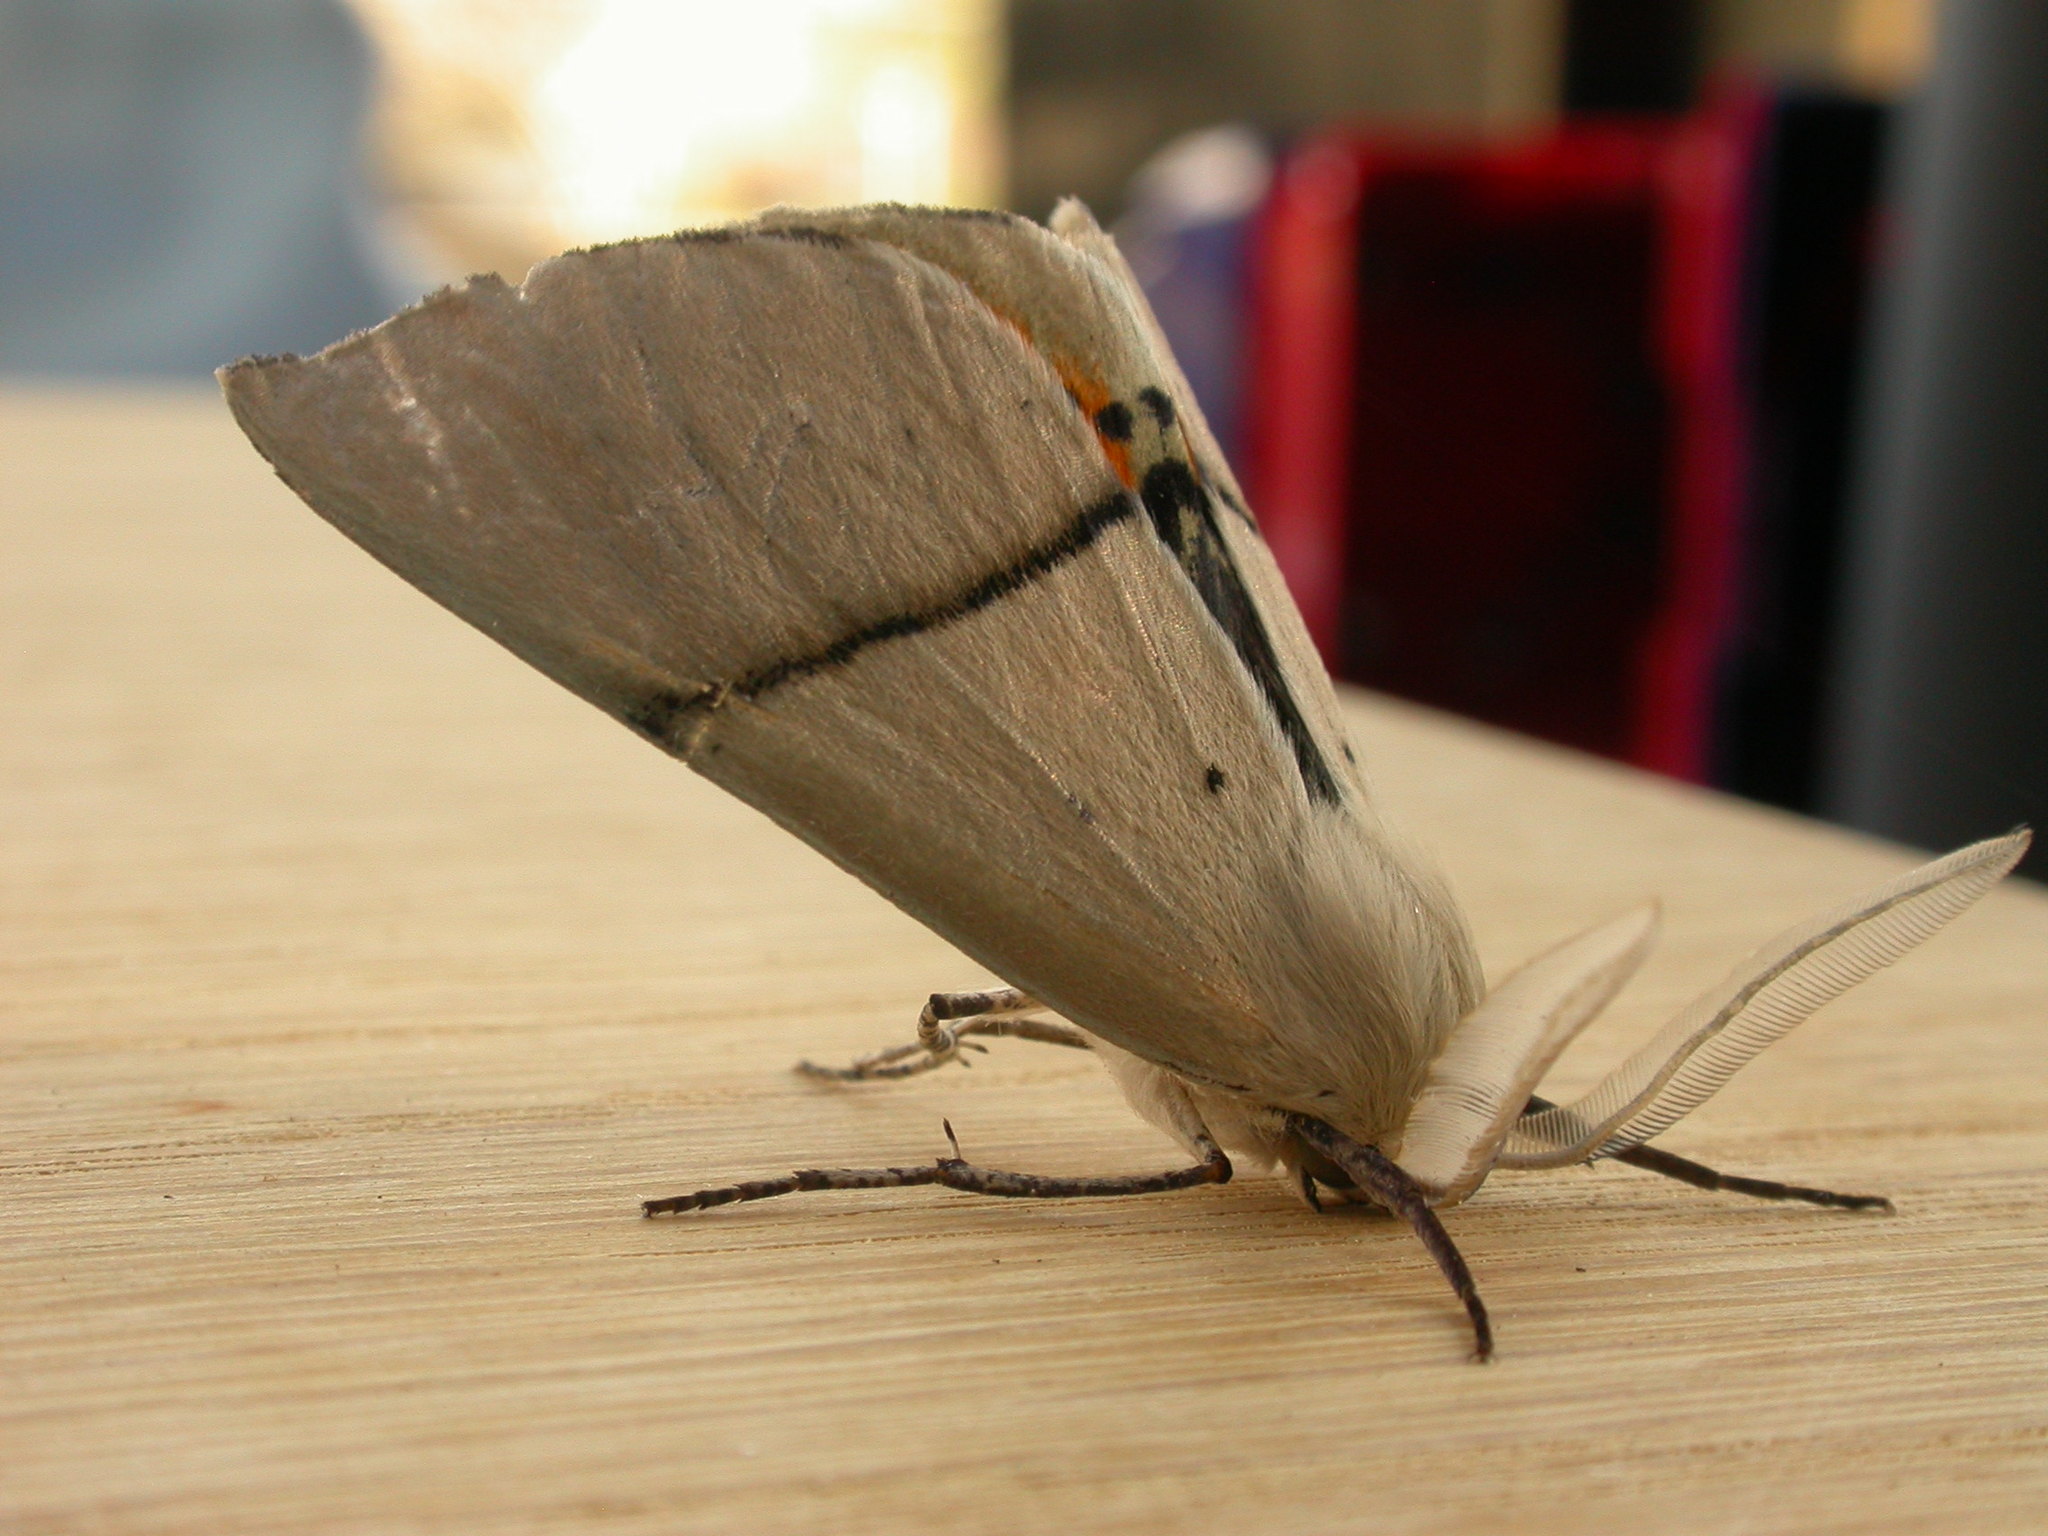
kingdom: Animalia
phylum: Arthropoda
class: Insecta
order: Lepidoptera
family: Geometridae
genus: Gastrophora
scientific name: Gastrophora henricaria
